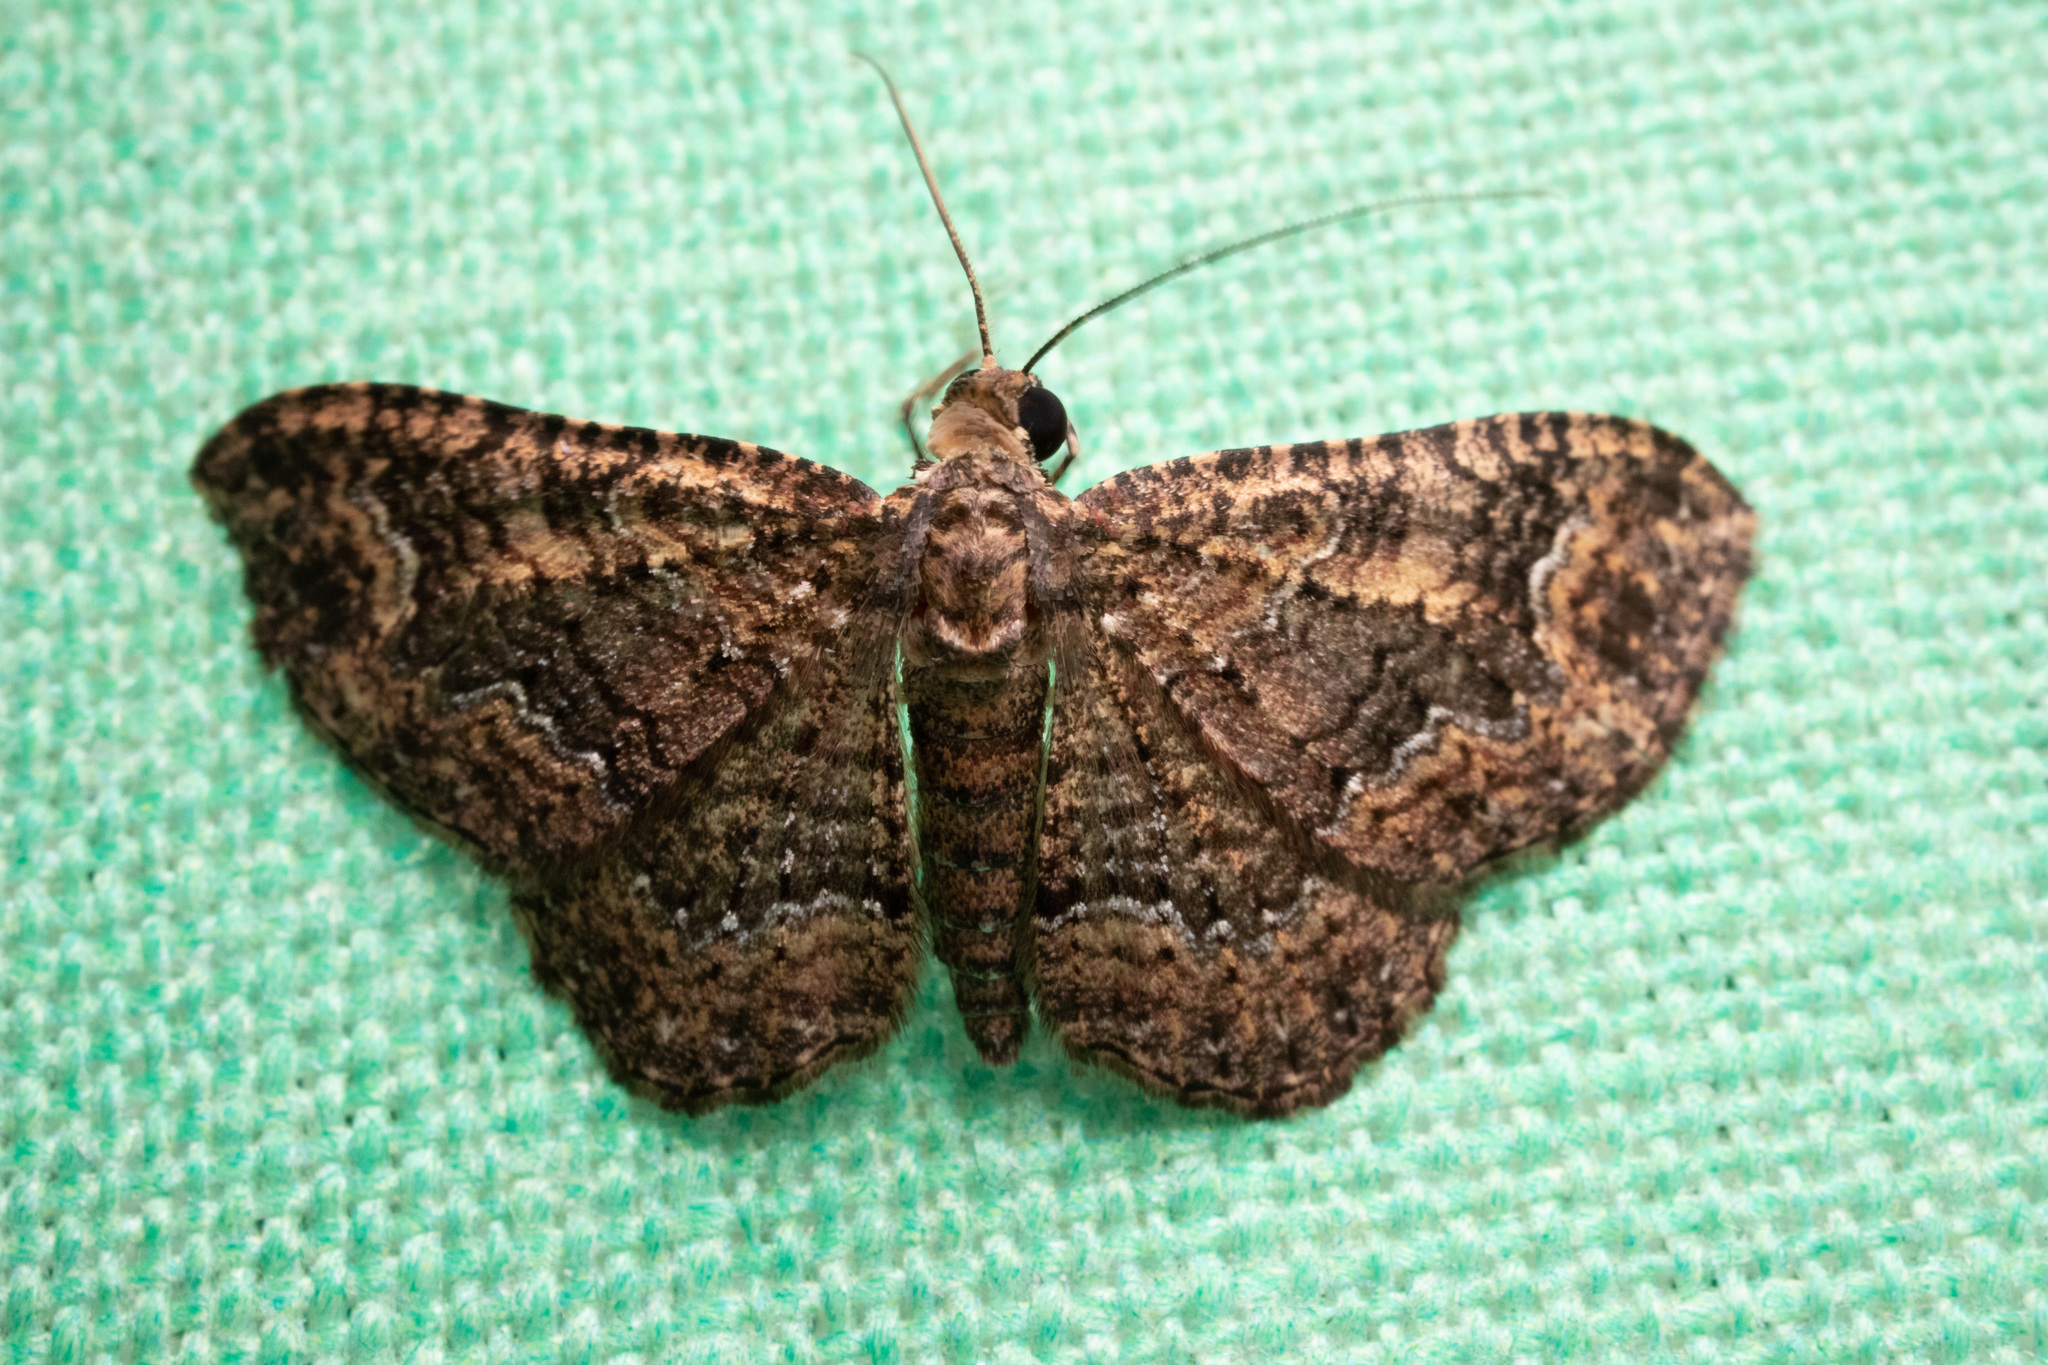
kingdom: Animalia
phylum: Arthropoda
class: Insecta
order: Lepidoptera
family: Geometridae
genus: Disclisioprocta
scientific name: Disclisioprocta stellata
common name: Somber carpet
